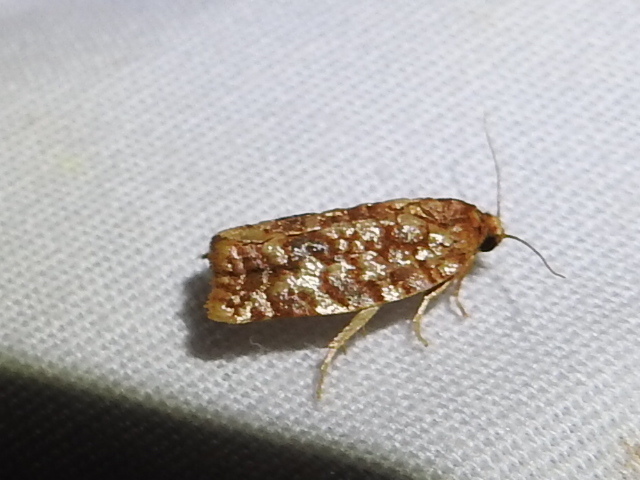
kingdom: Animalia
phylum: Arthropoda
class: Insecta
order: Lepidoptera
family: Tortricidae
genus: Choristoneura
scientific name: Choristoneura houstonana
